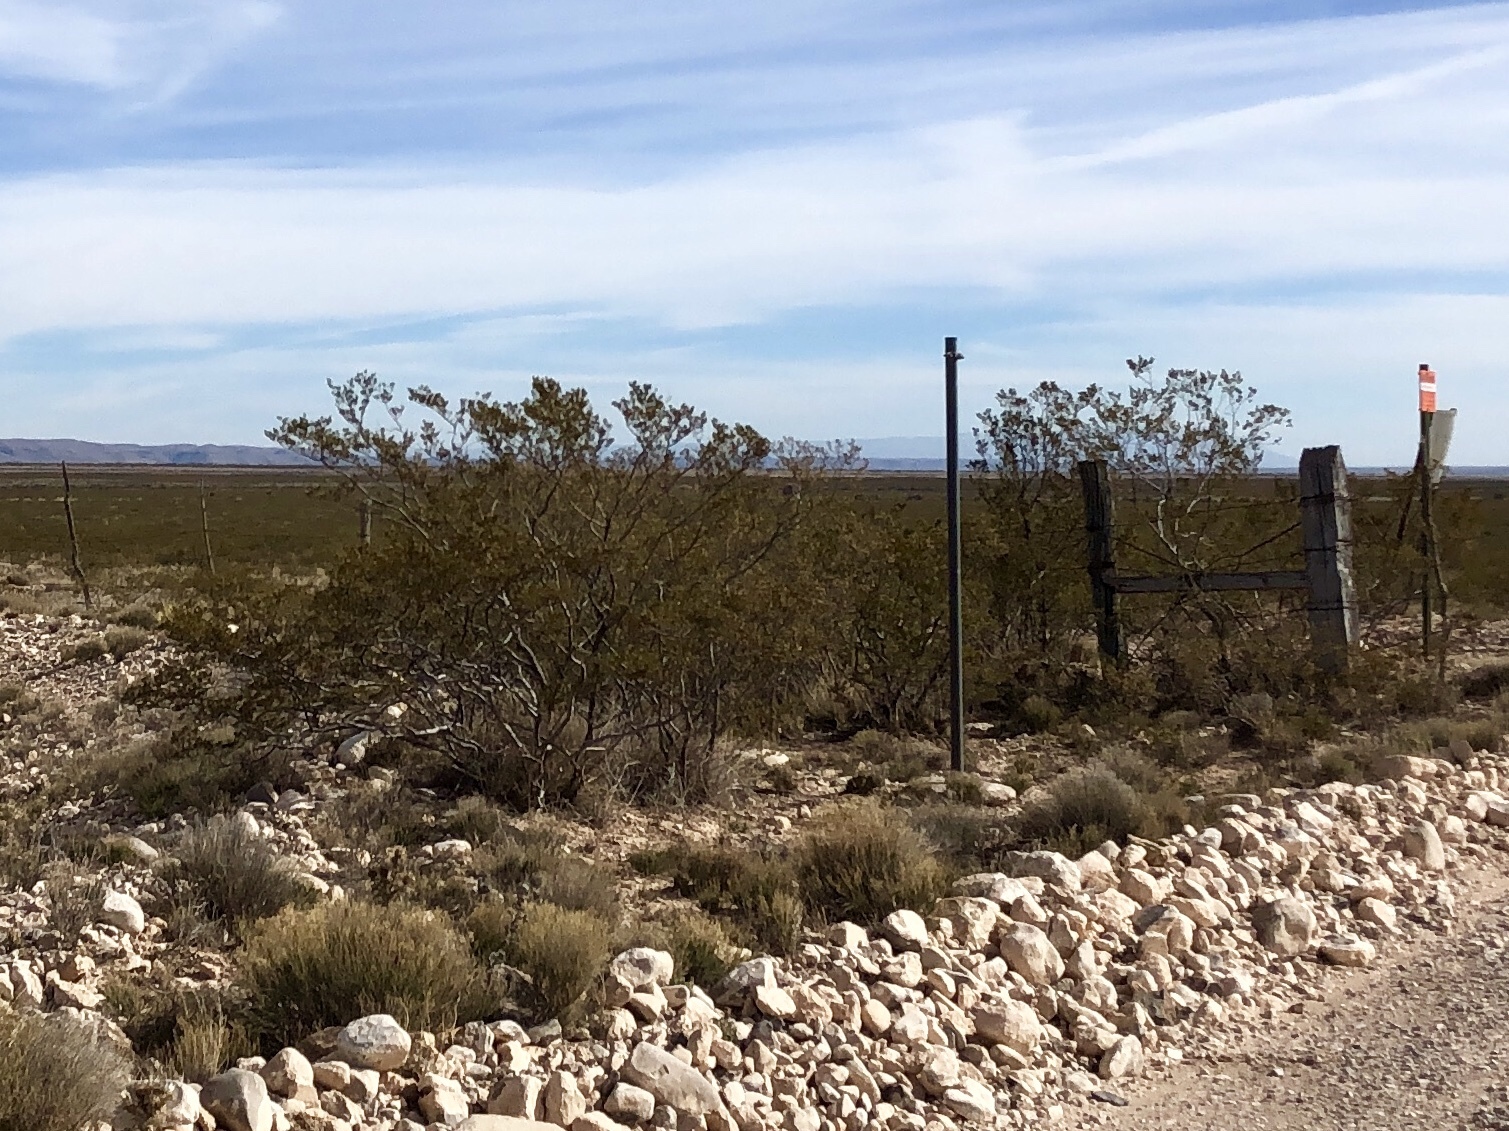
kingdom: Plantae
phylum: Tracheophyta
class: Magnoliopsida
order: Zygophyllales
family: Zygophyllaceae
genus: Larrea
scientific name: Larrea tridentata
